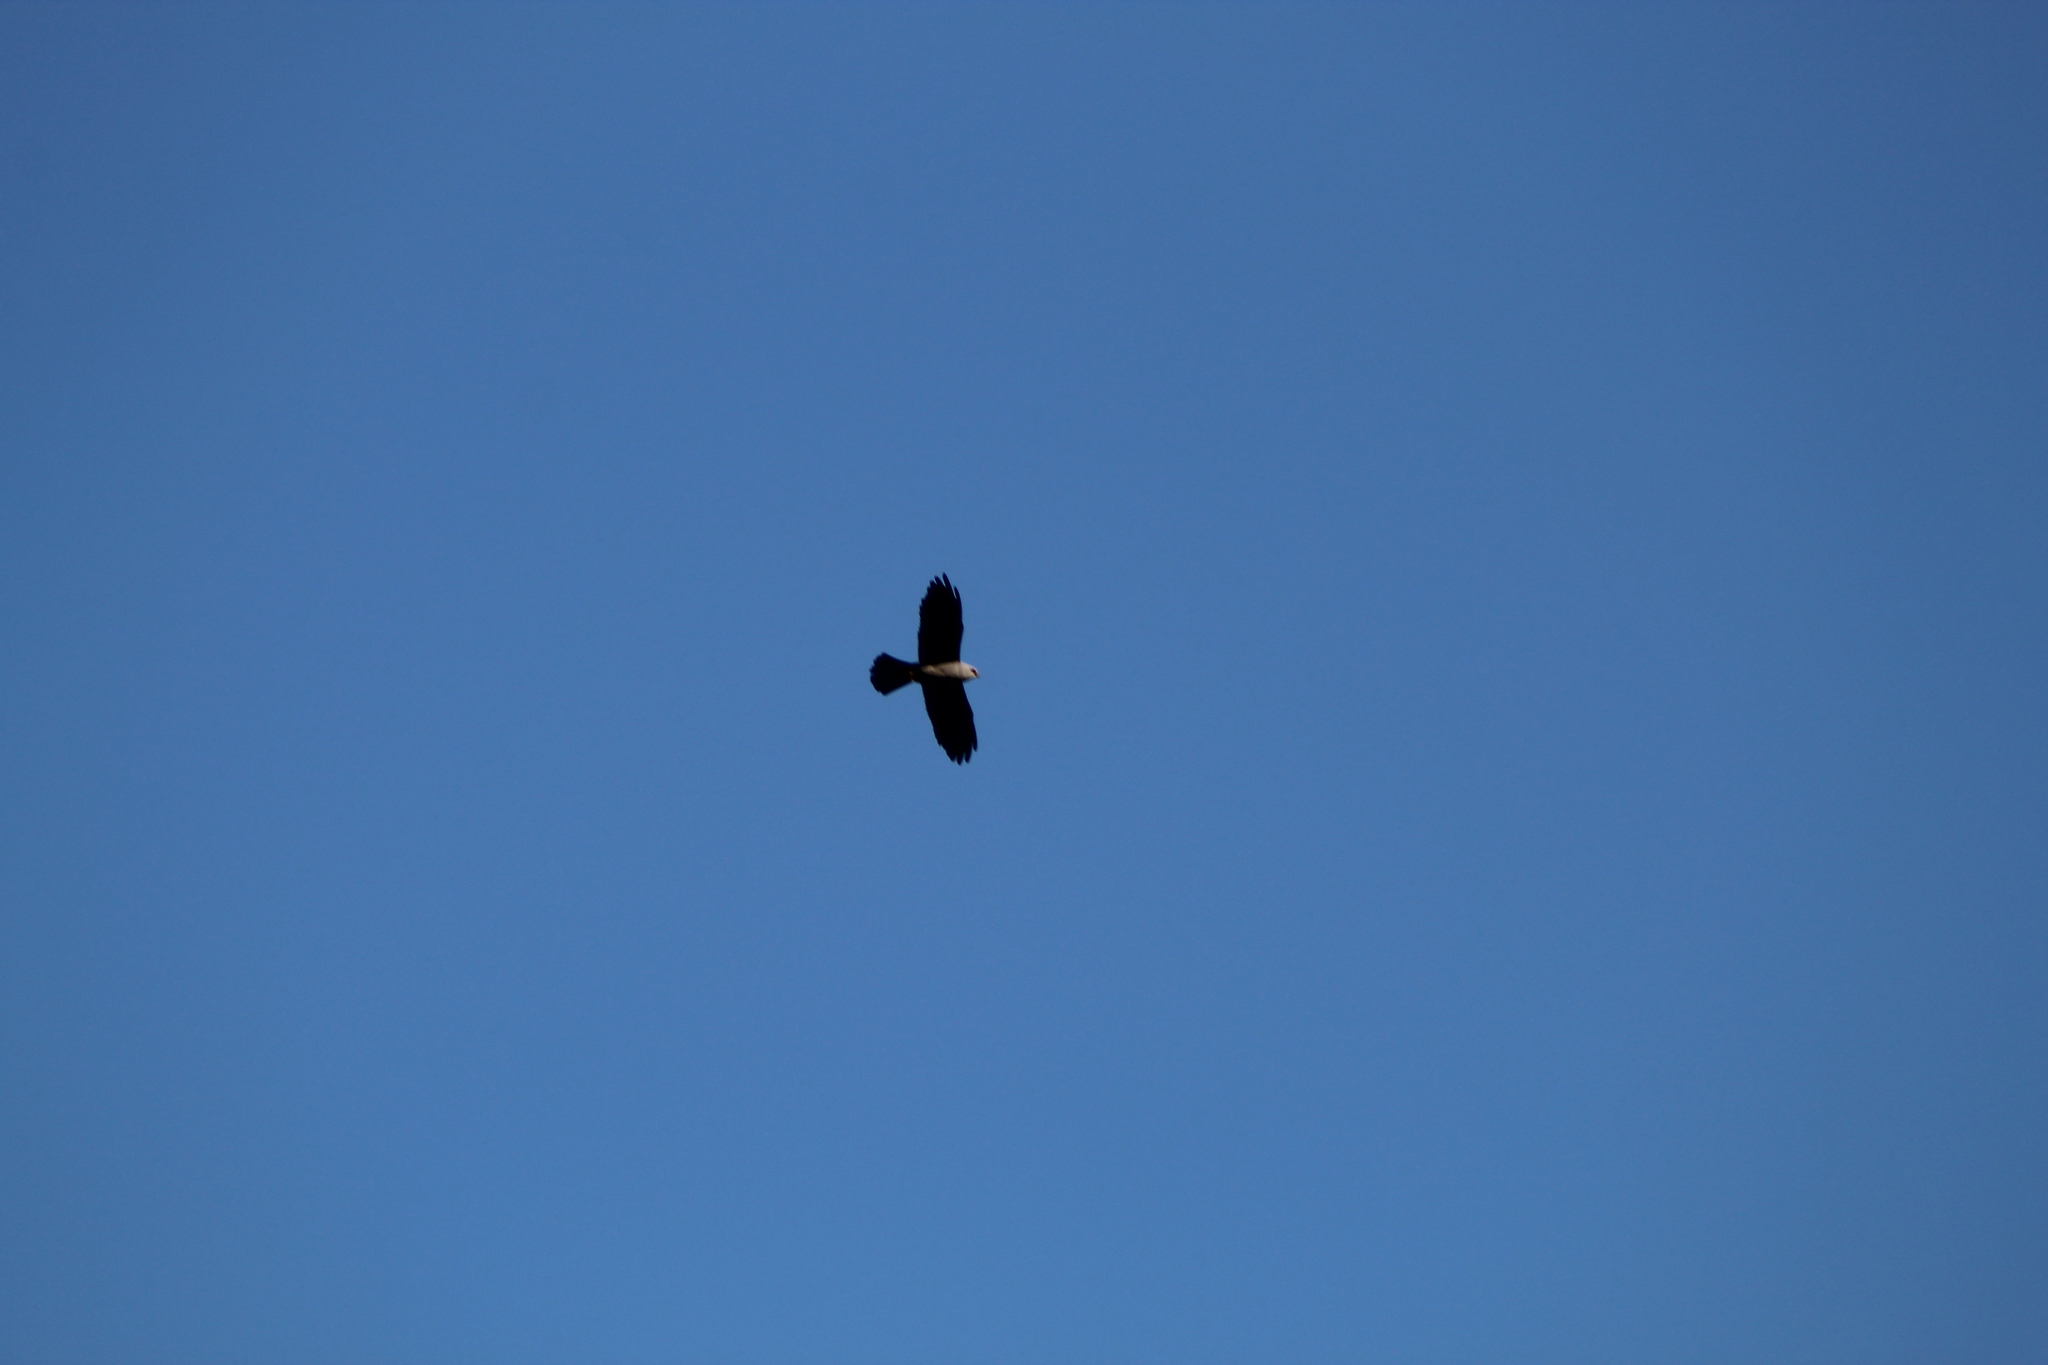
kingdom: Animalia
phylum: Chordata
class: Aves
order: Accipitriformes
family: Accipitridae
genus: Ictinia
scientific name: Ictinia mississippiensis
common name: Mississippi kite
